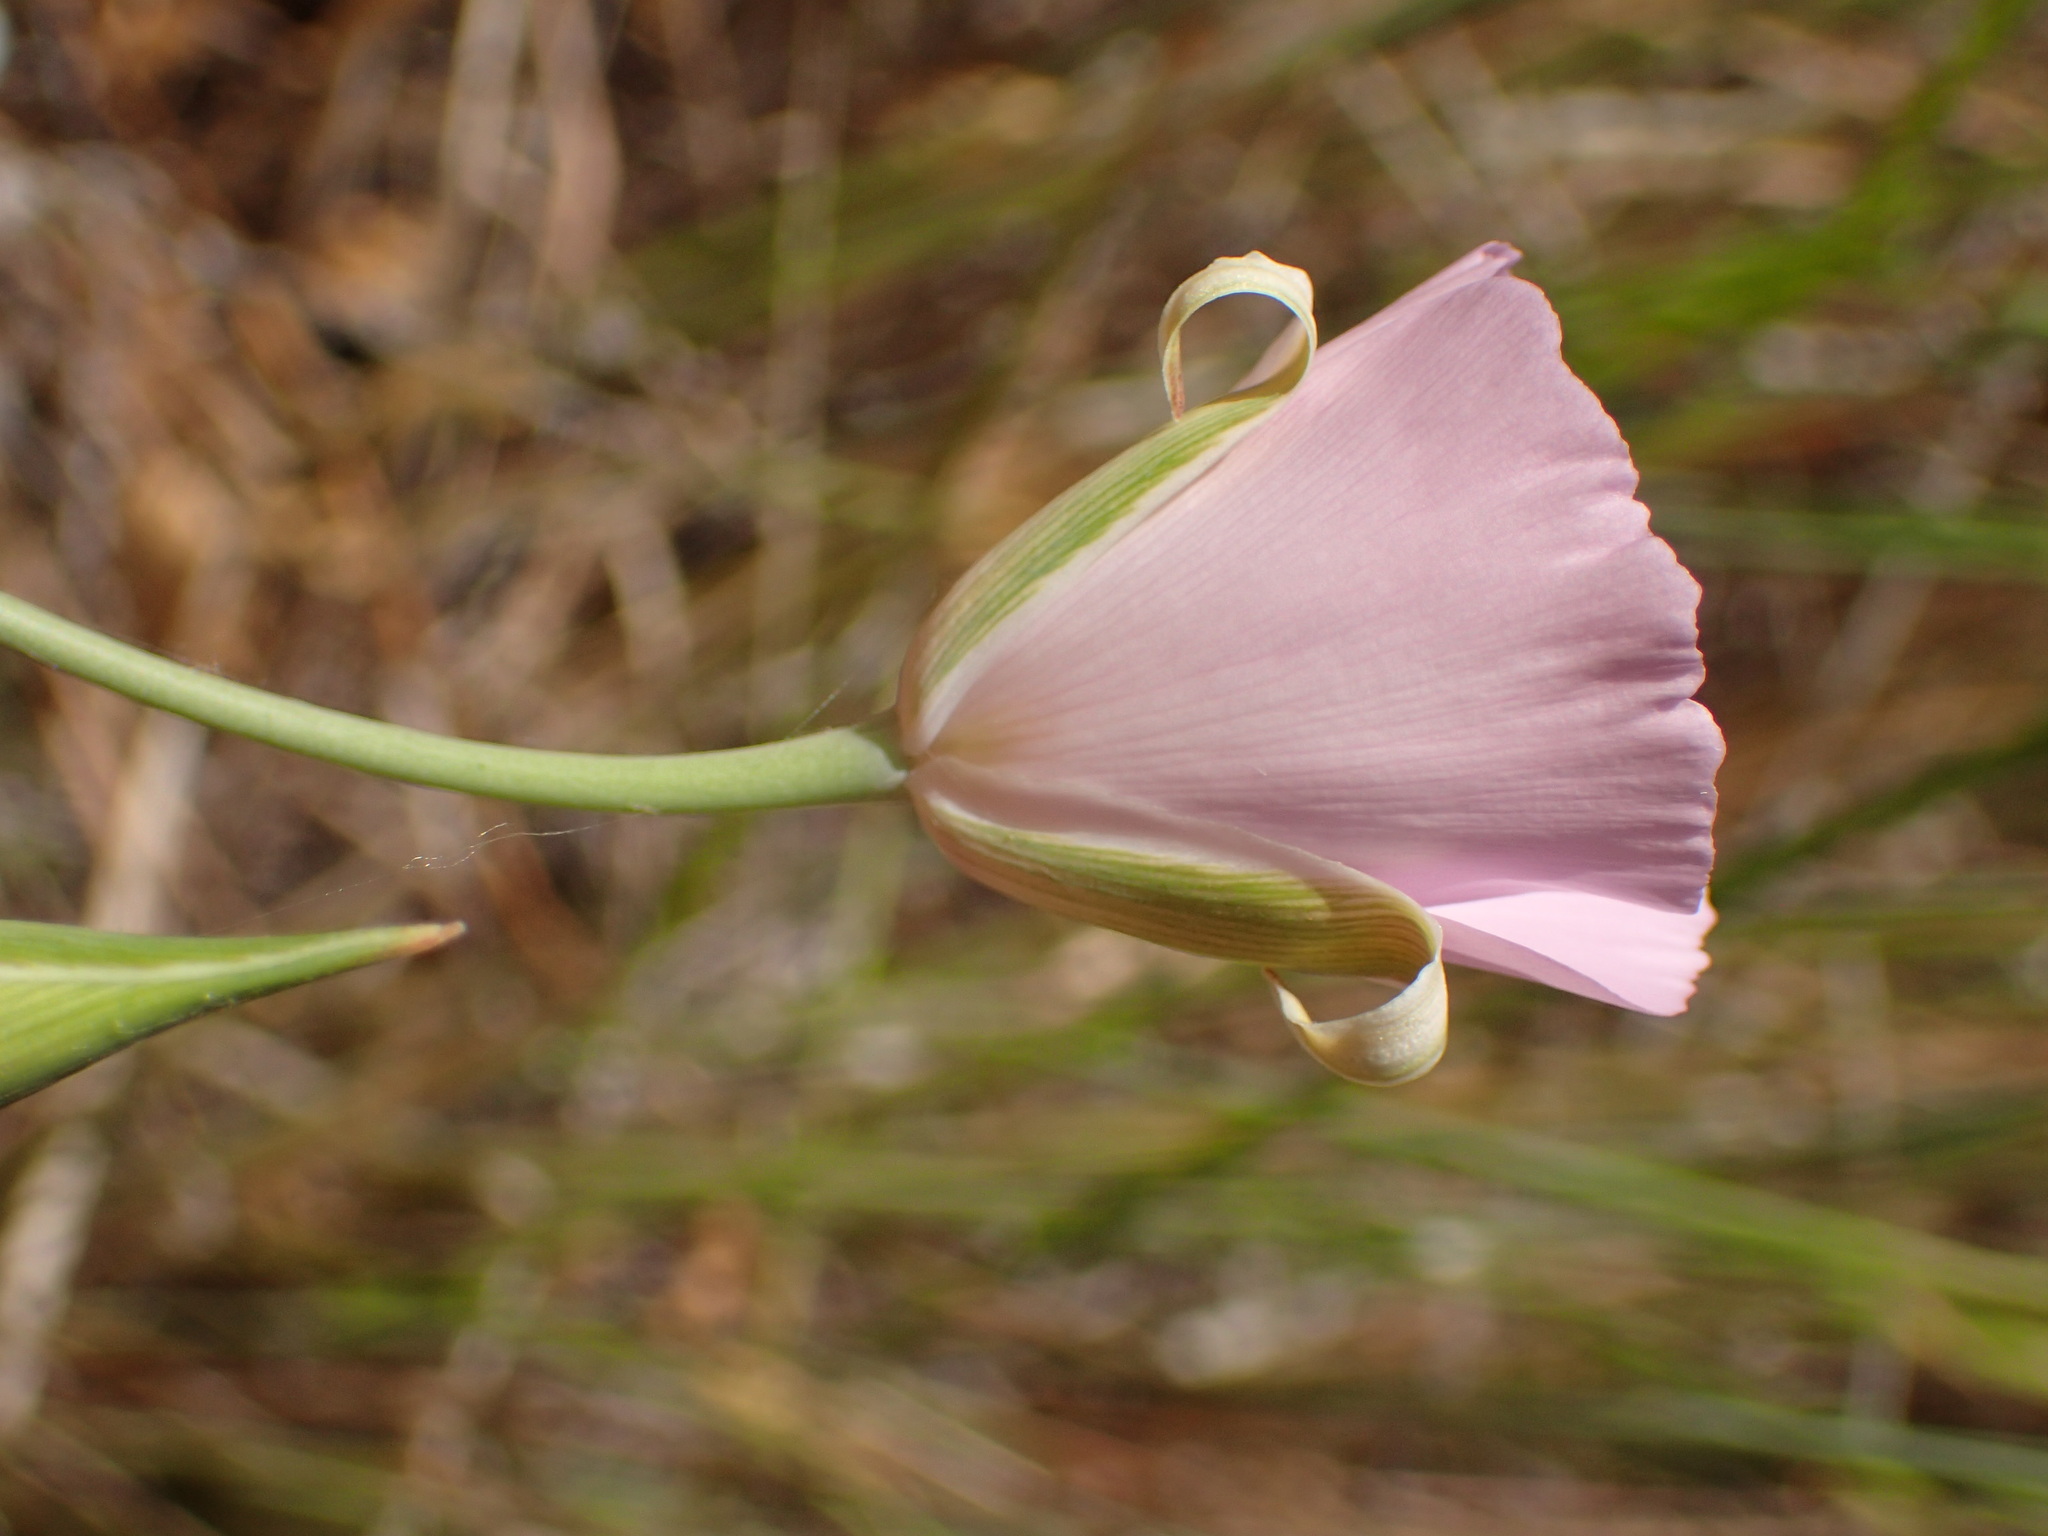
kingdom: Plantae
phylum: Tracheophyta
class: Liliopsida
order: Liliales
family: Liliaceae
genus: Calochortus
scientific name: Calochortus splendens
